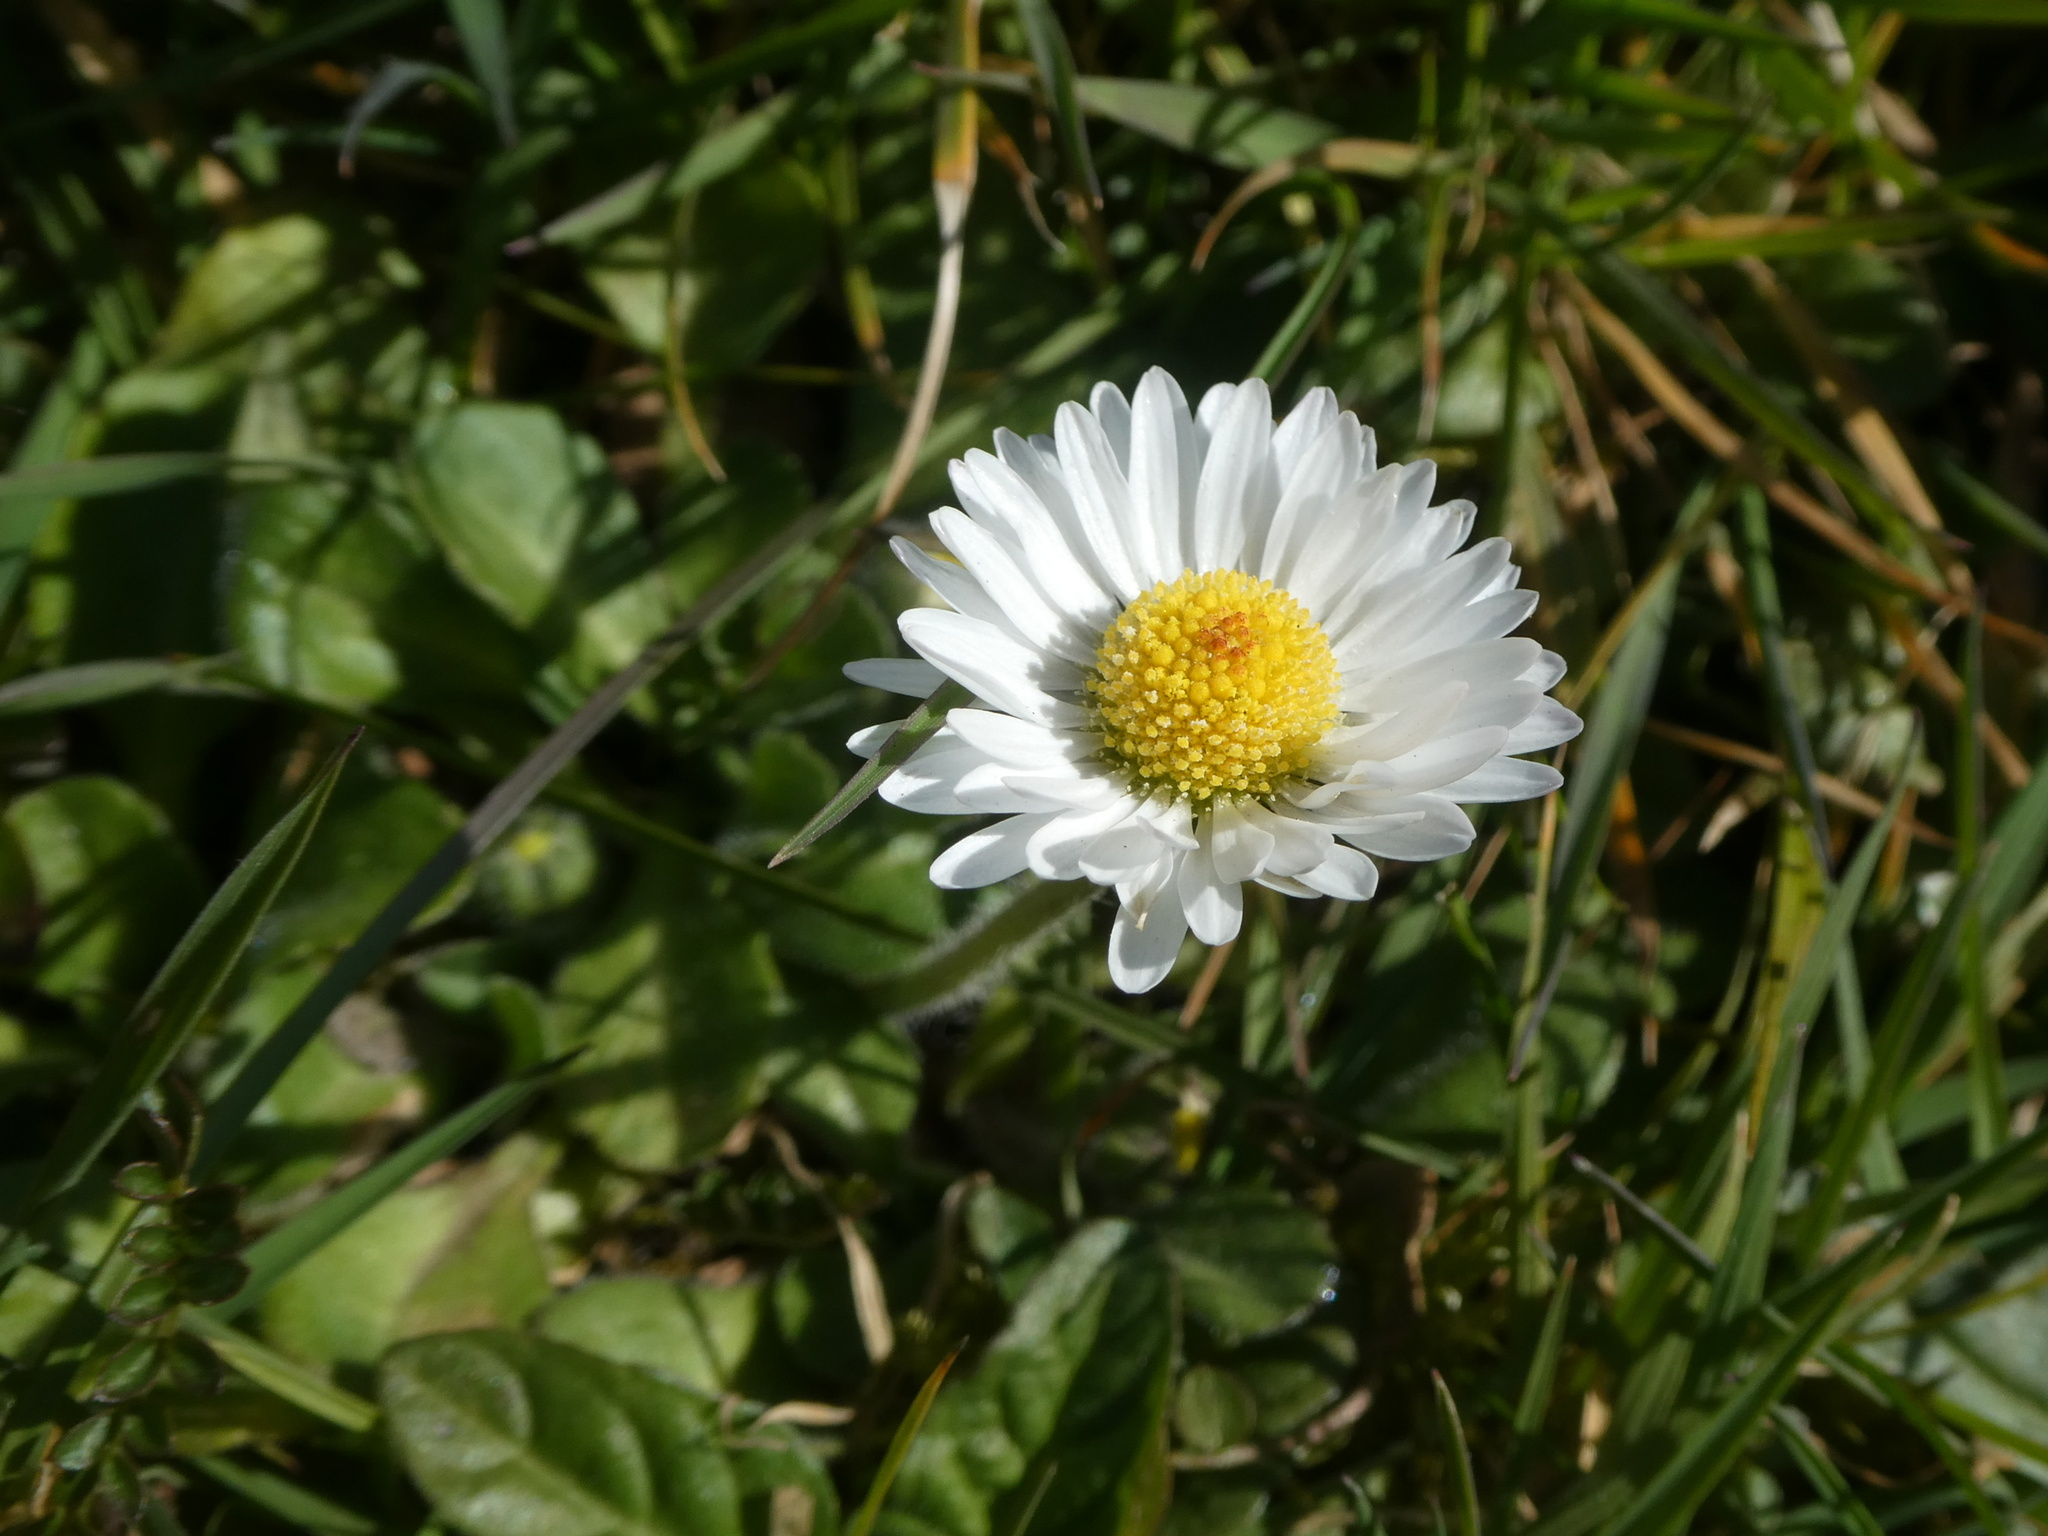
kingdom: Plantae
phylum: Tracheophyta
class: Magnoliopsida
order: Asterales
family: Asteraceae
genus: Bellis
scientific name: Bellis perennis
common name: Lawndaisy
